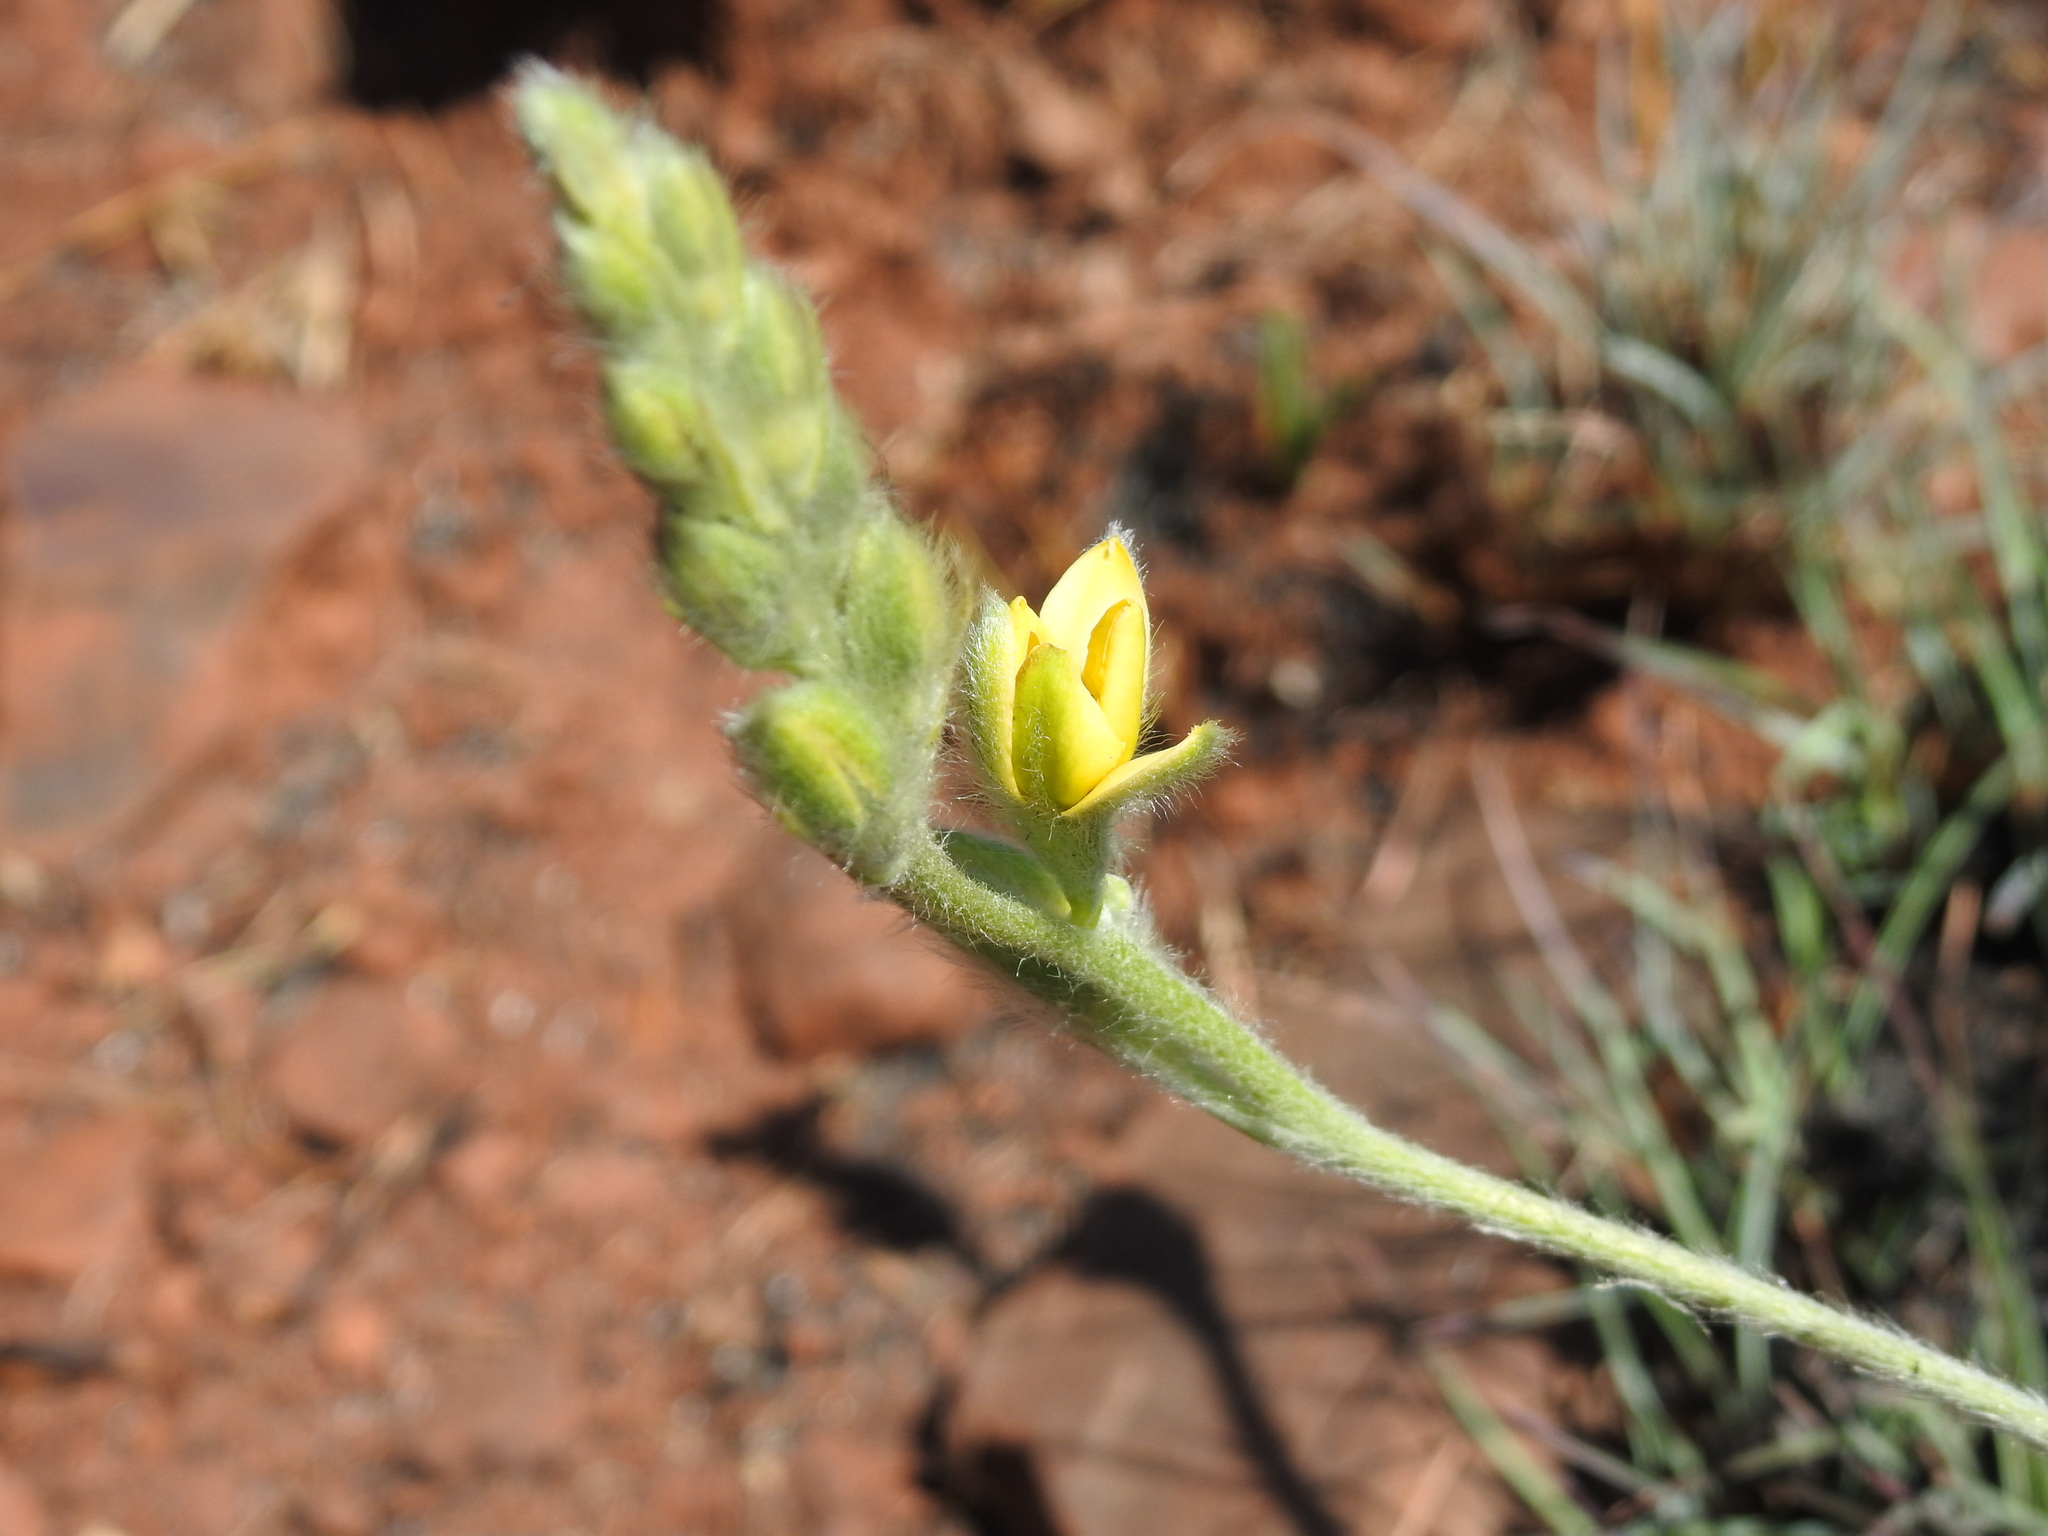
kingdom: Plantae
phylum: Tracheophyta
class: Liliopsida
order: Asparagales
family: Hypoxidaceae
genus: Hypoxis
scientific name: Hypoxis rigidula
